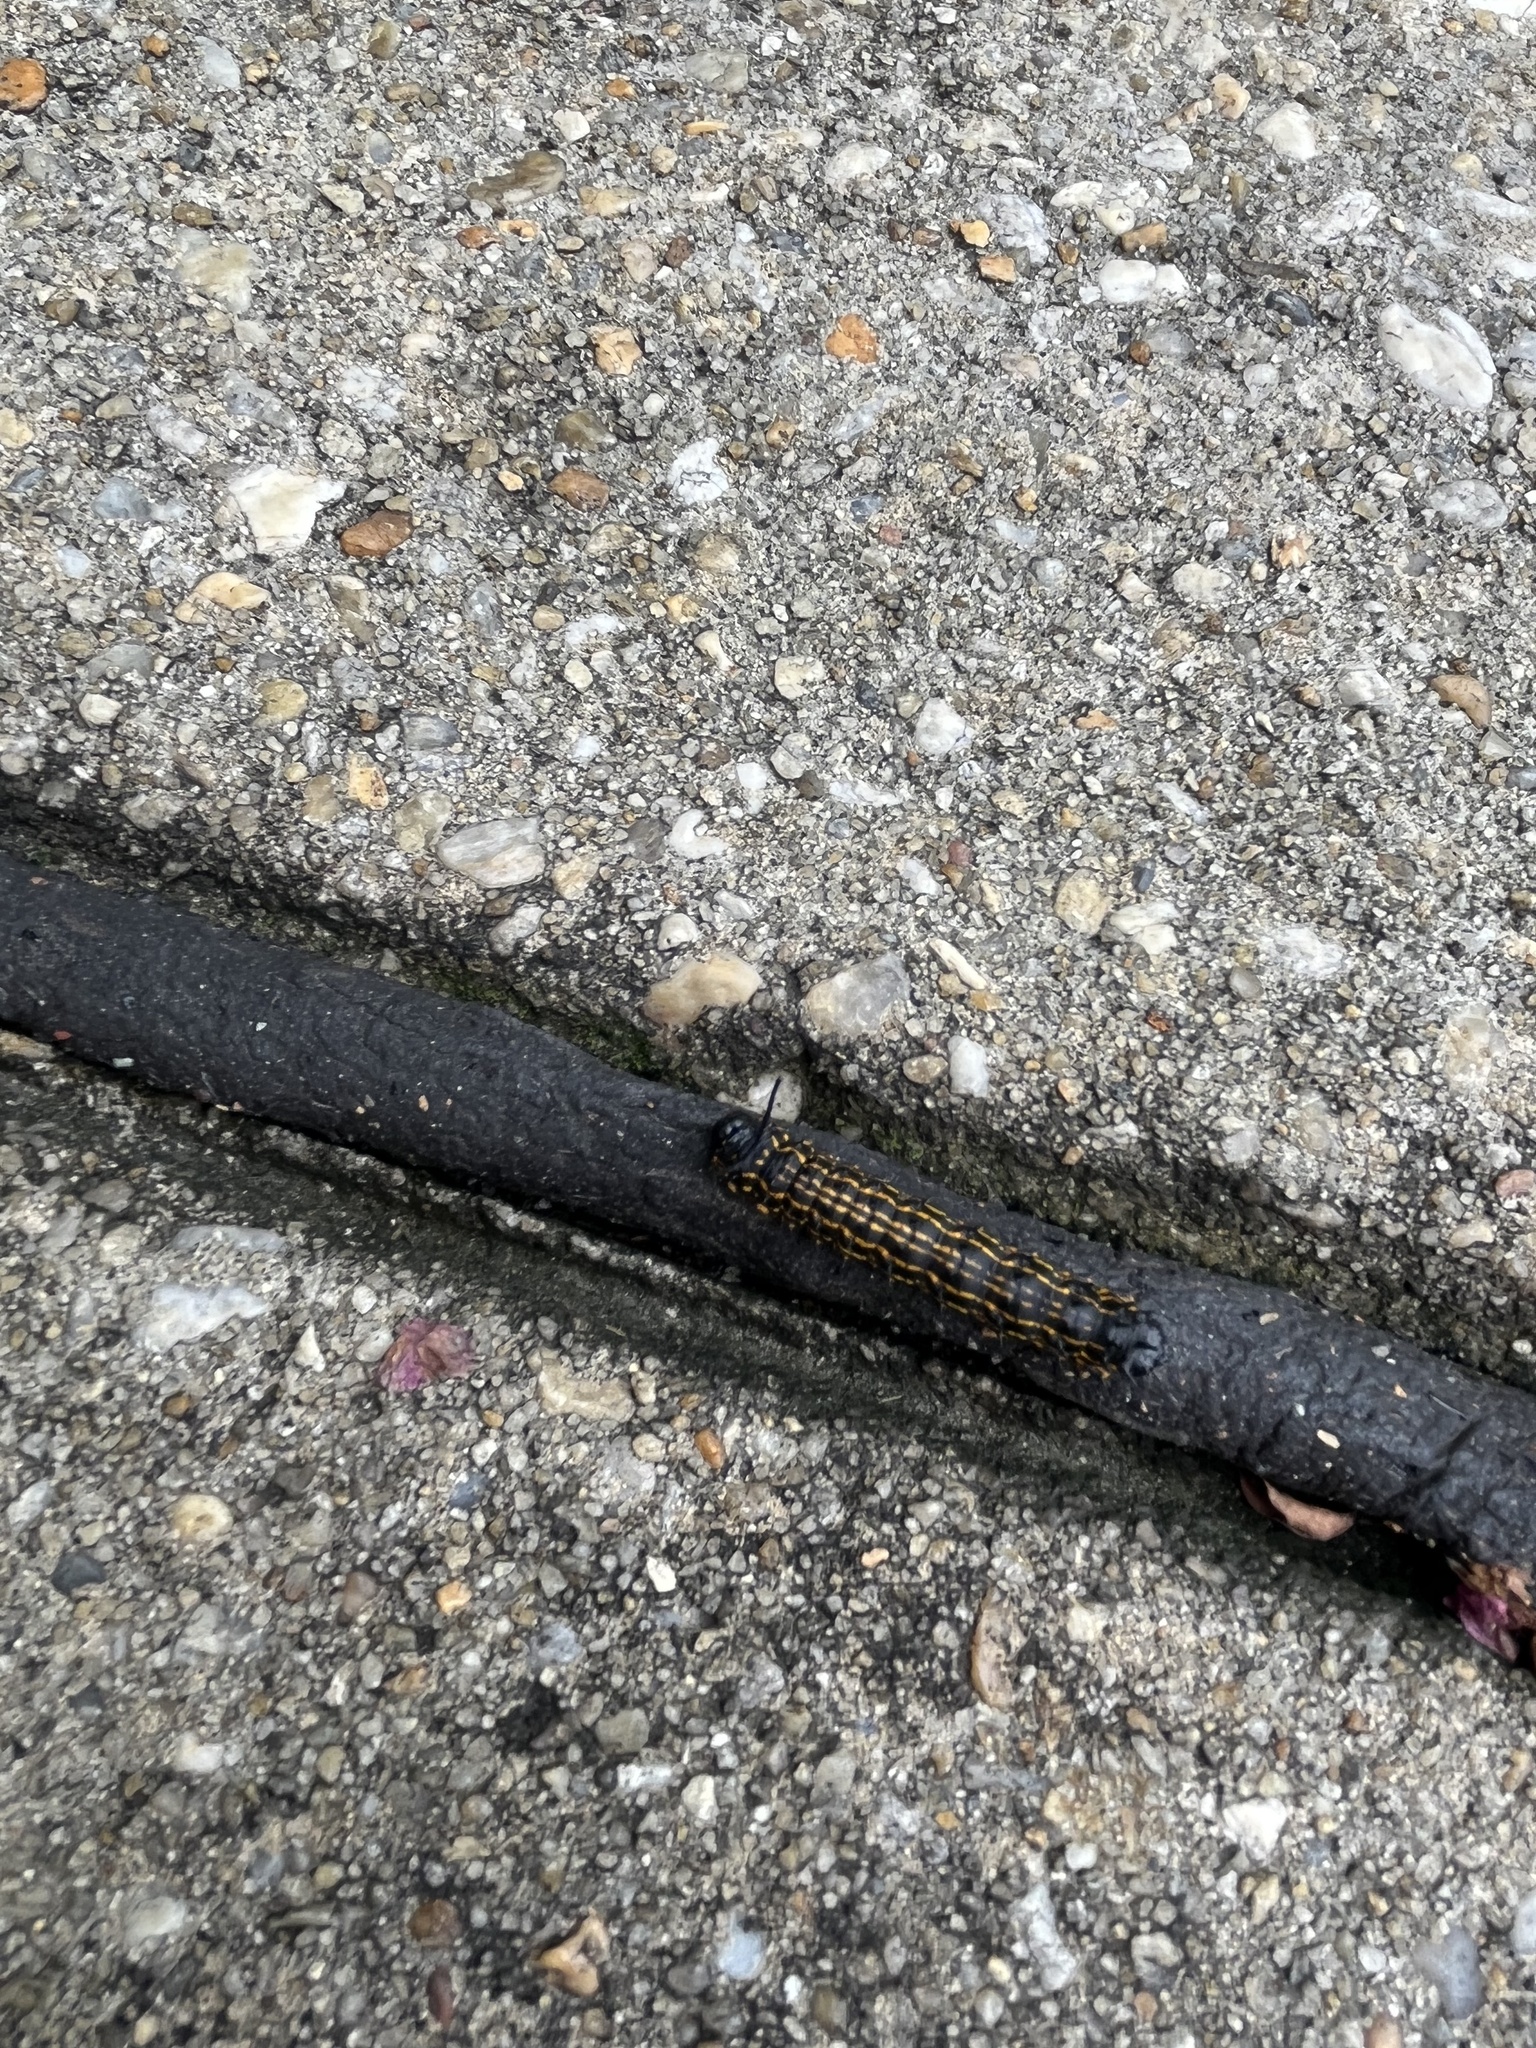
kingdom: Animalia
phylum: Arthropoda
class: Insecta
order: Lepidoptera
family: Saturniidae
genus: Anisota
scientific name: Anisota peigleri
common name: Peigler's oakworm moth
